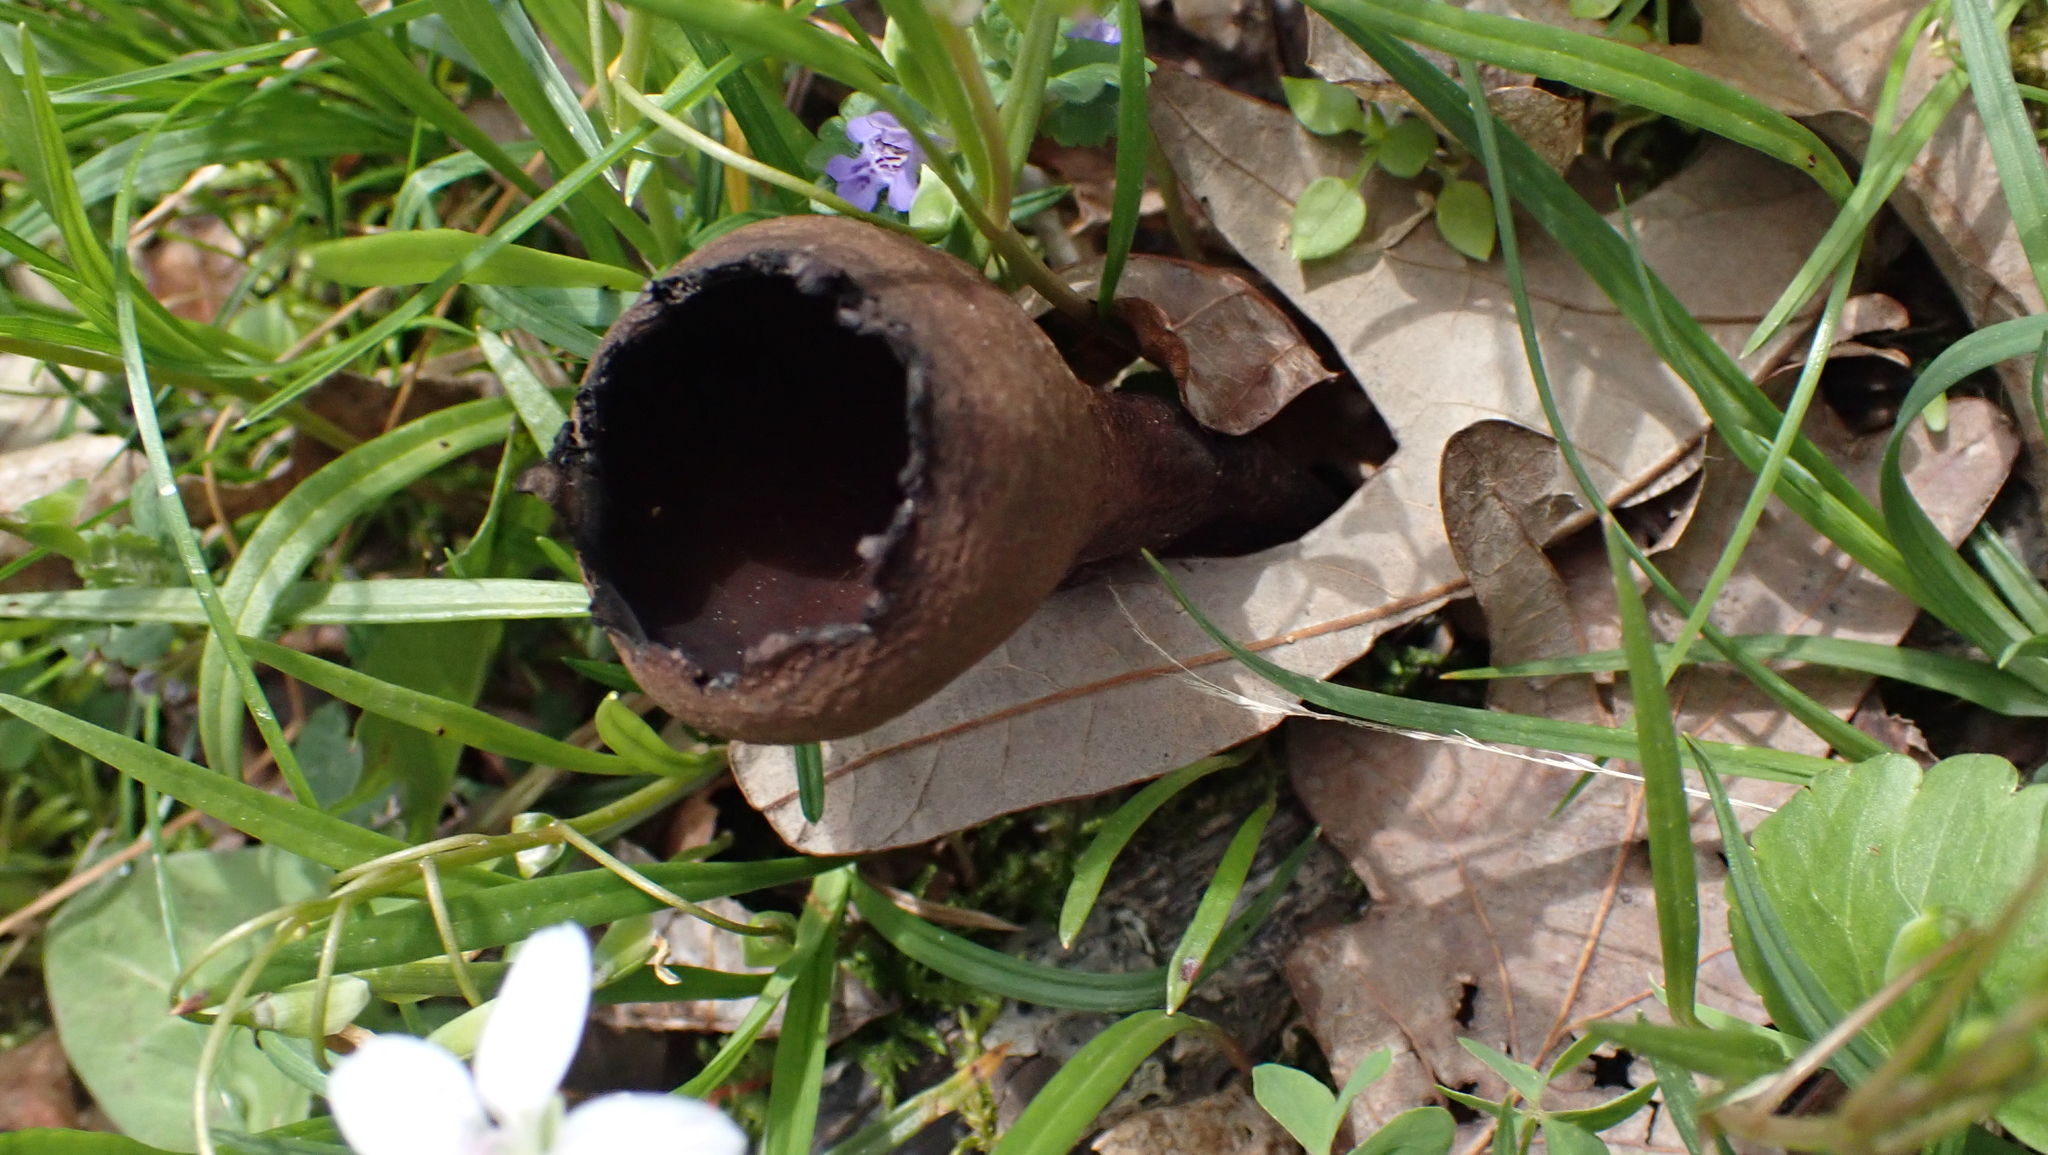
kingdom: Fungi
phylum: Ascomycota
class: Pezizomycetes
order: Pezizales
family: Sarcosomataceae
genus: Urnula
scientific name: Urnula craterium
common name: Devil's urn
